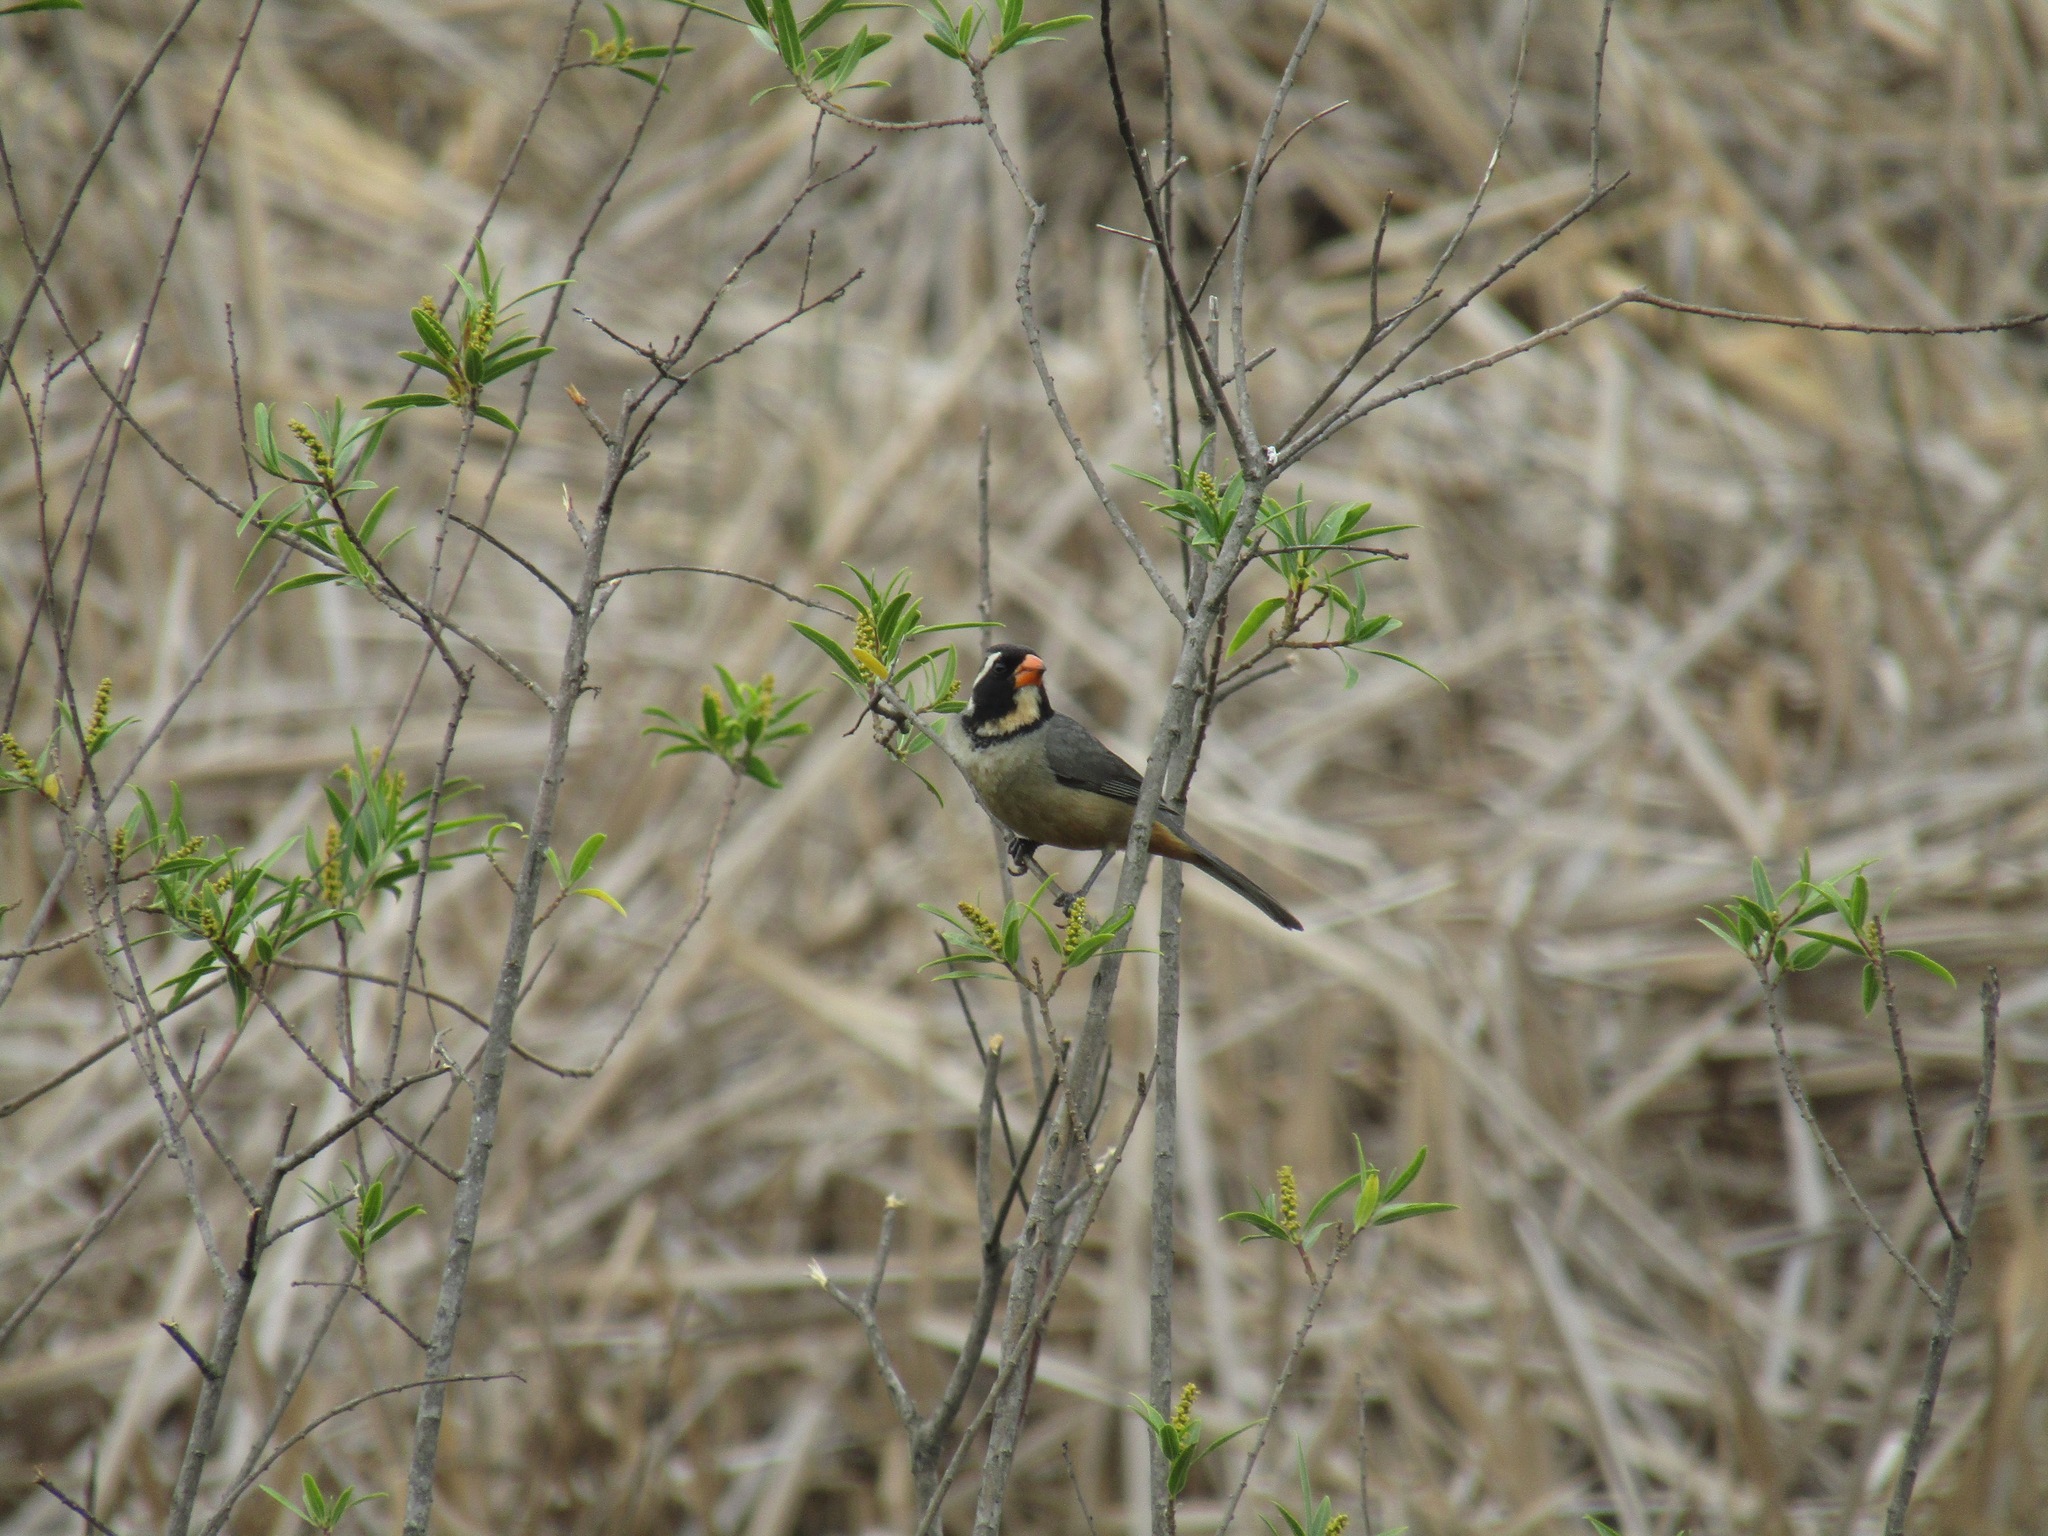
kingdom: Animalia
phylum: Chordata
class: Aves
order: Passeriformes
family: Thraupidae
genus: Saltator
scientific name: Saltator aurantiirostris
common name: Golden-billed saltator
